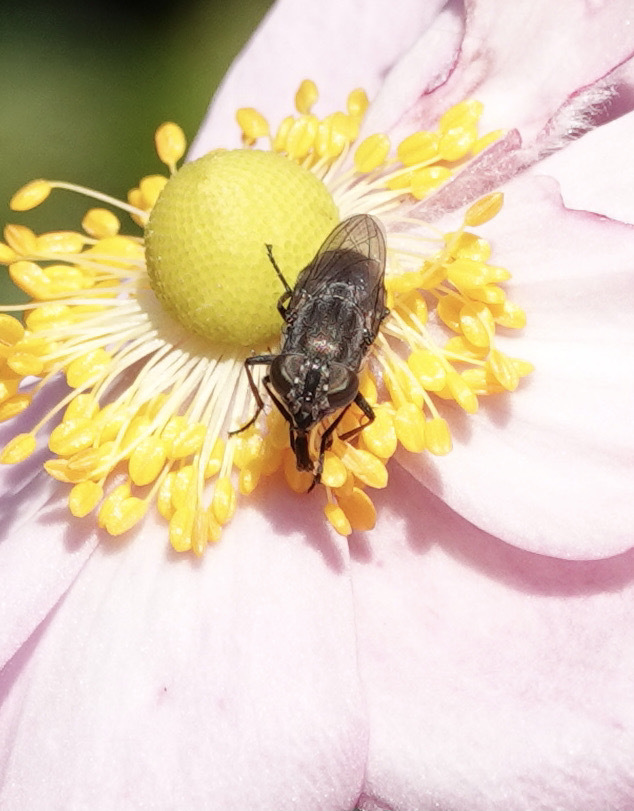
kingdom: Animalia
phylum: Arthropoda
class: Insecta
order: Diptera
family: Calliphoridae
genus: Stomorhina
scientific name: Stomorhina lunata
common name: Locust blowfly
